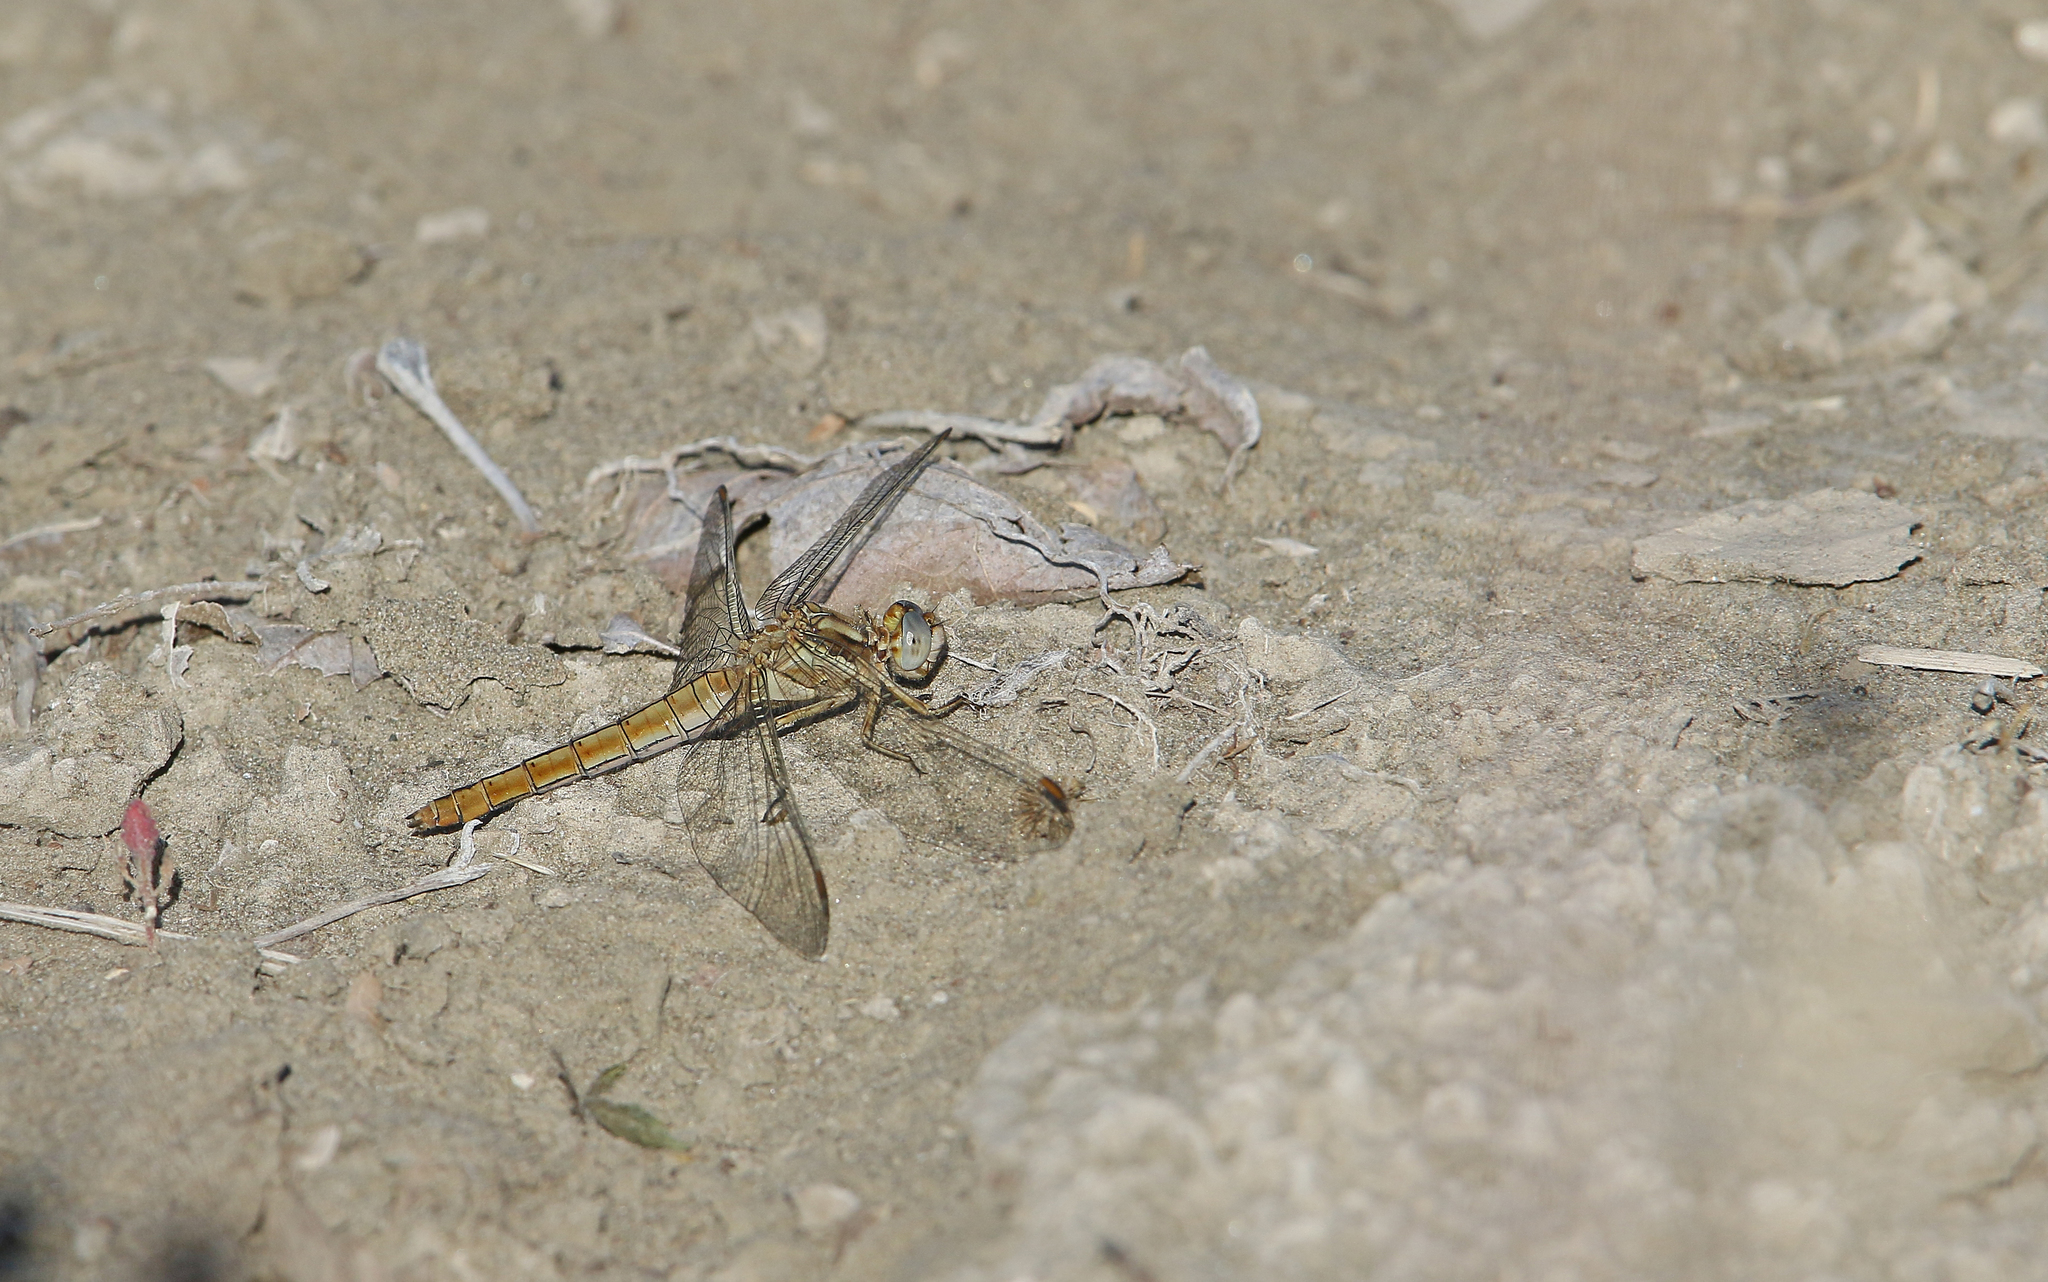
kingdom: Animalia
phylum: Arthropoda
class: Insecta
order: Odonata
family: Libellulidae
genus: Orthetrum
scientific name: Orthetrum brunneum
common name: Southern skimmer
